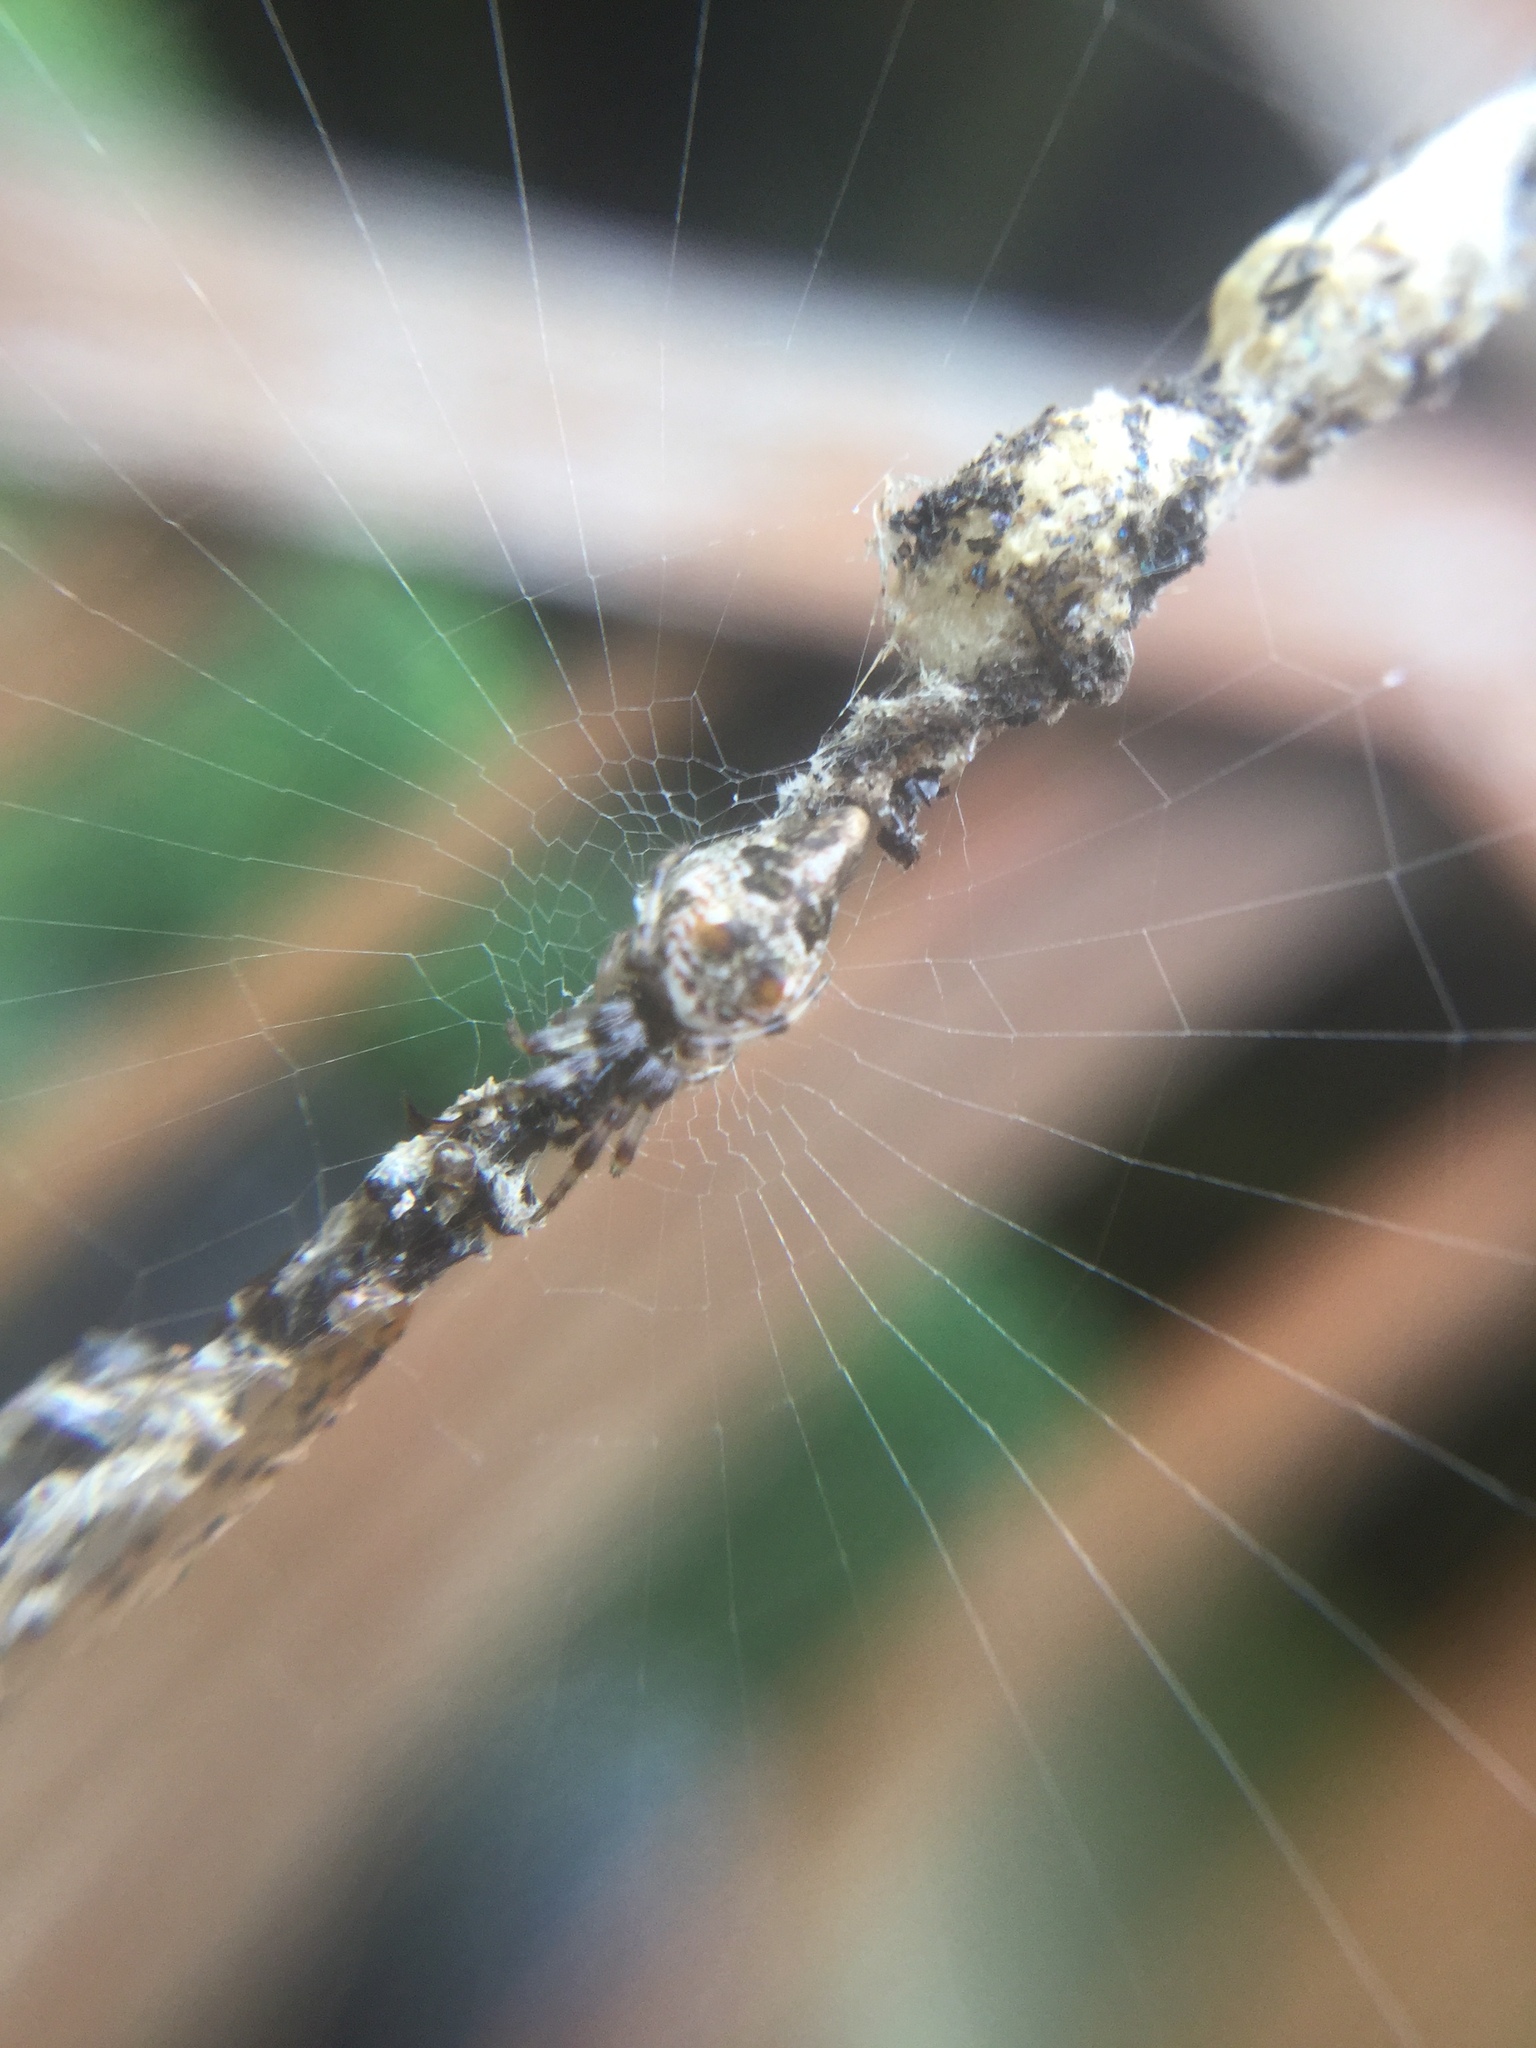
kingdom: Animalia
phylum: Arthropoda
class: Arachnida
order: Araneae
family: Araneidae
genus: Cyclosa
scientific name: Cyclosa turbinata
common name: Orb weavers
